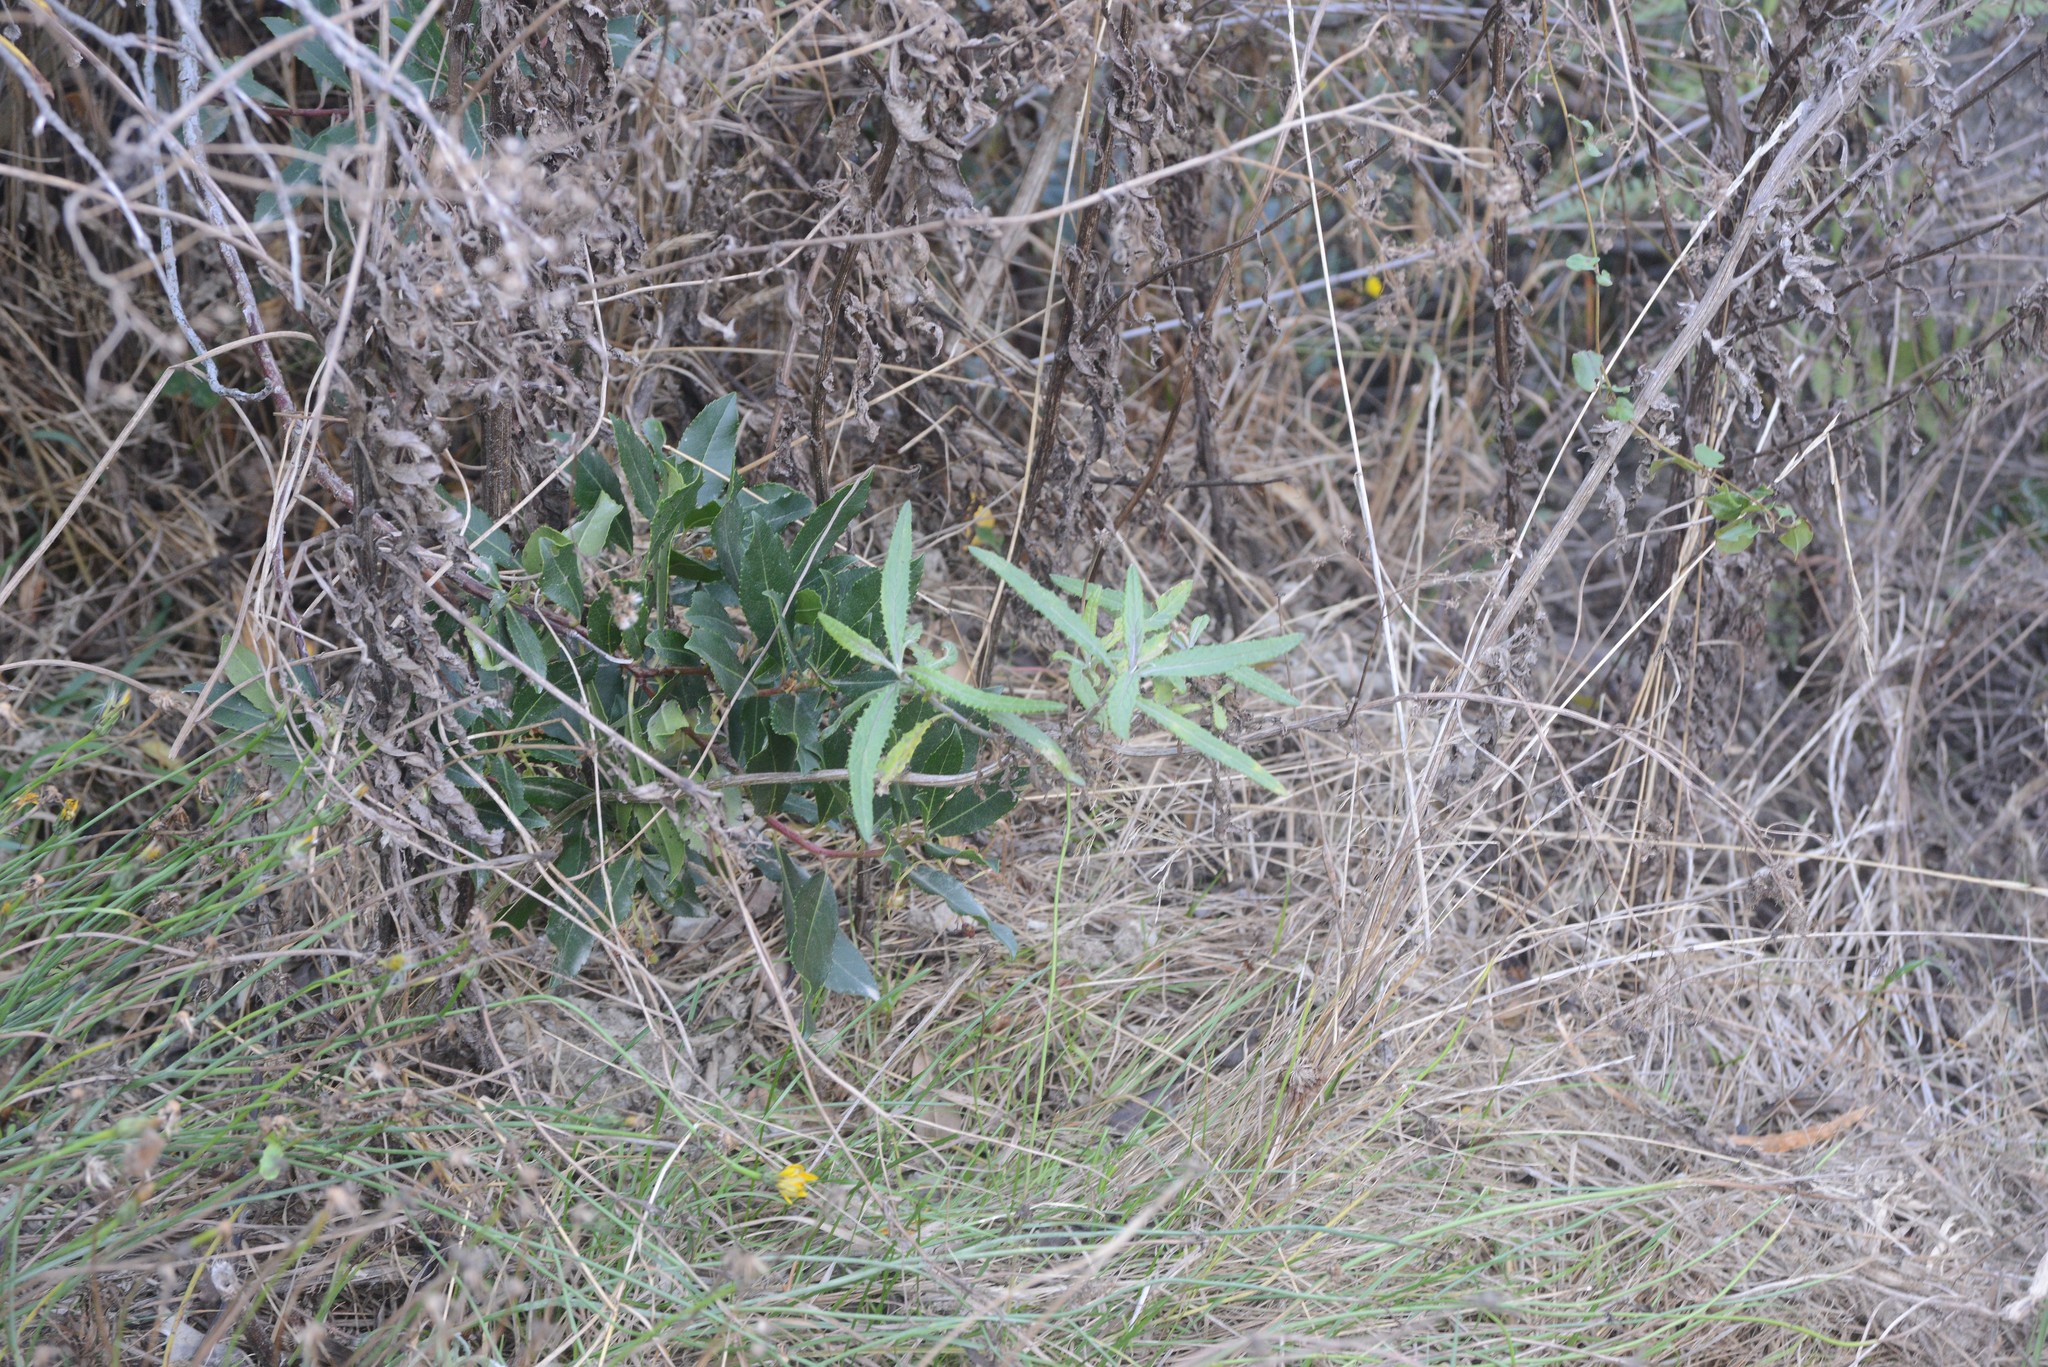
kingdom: Plantae
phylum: Tracheophyta
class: Magnoliopsida
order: Asterales
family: Asteraceae
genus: Senecio
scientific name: Senecio minimus
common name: Toothed fireweed
